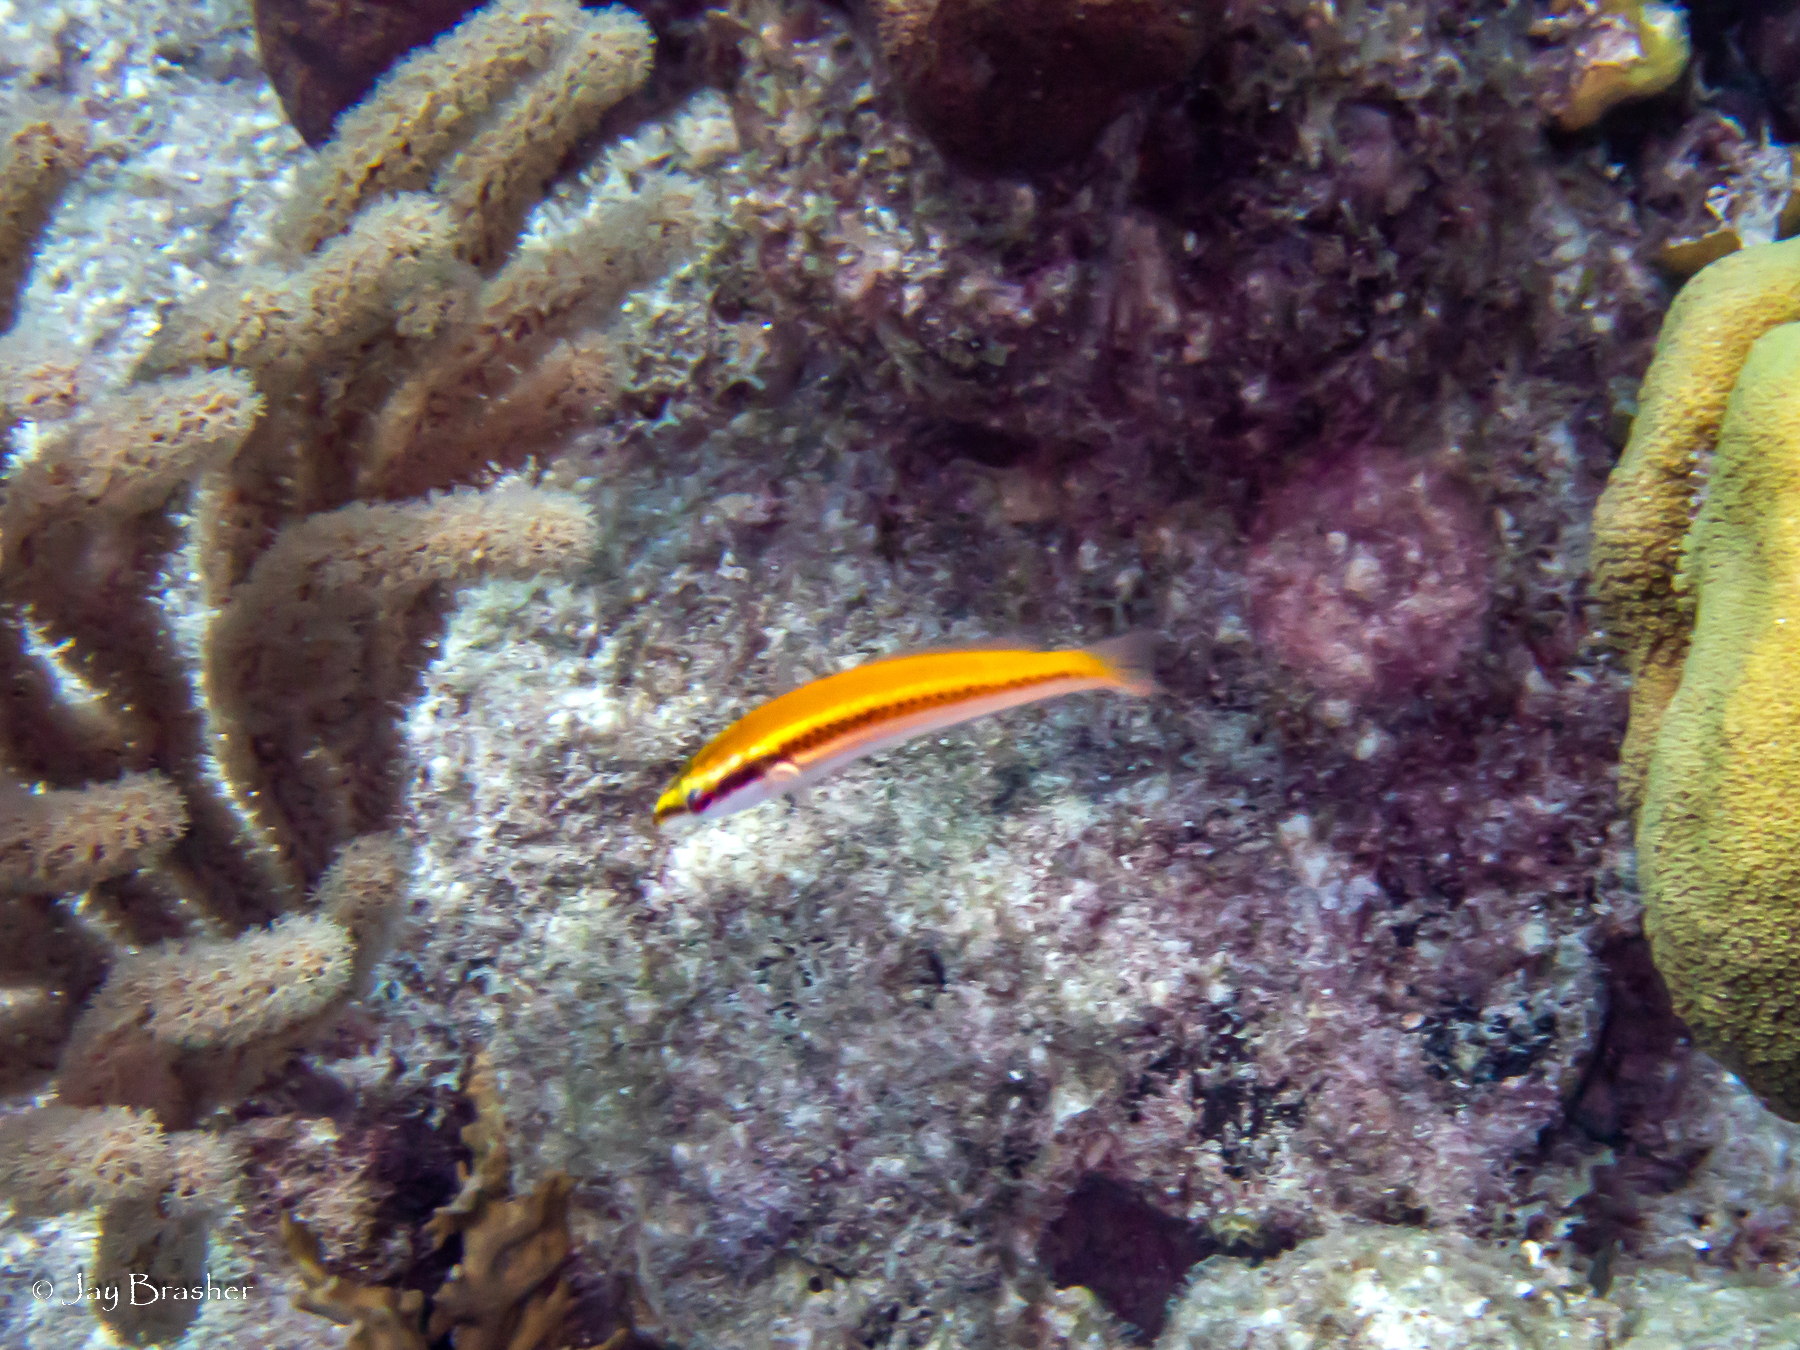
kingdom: Animalia
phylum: Chordata
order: Perciformes
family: Labridae
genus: Halichoeres
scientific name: Halichoeres pictus
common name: Rainbow wrasse
